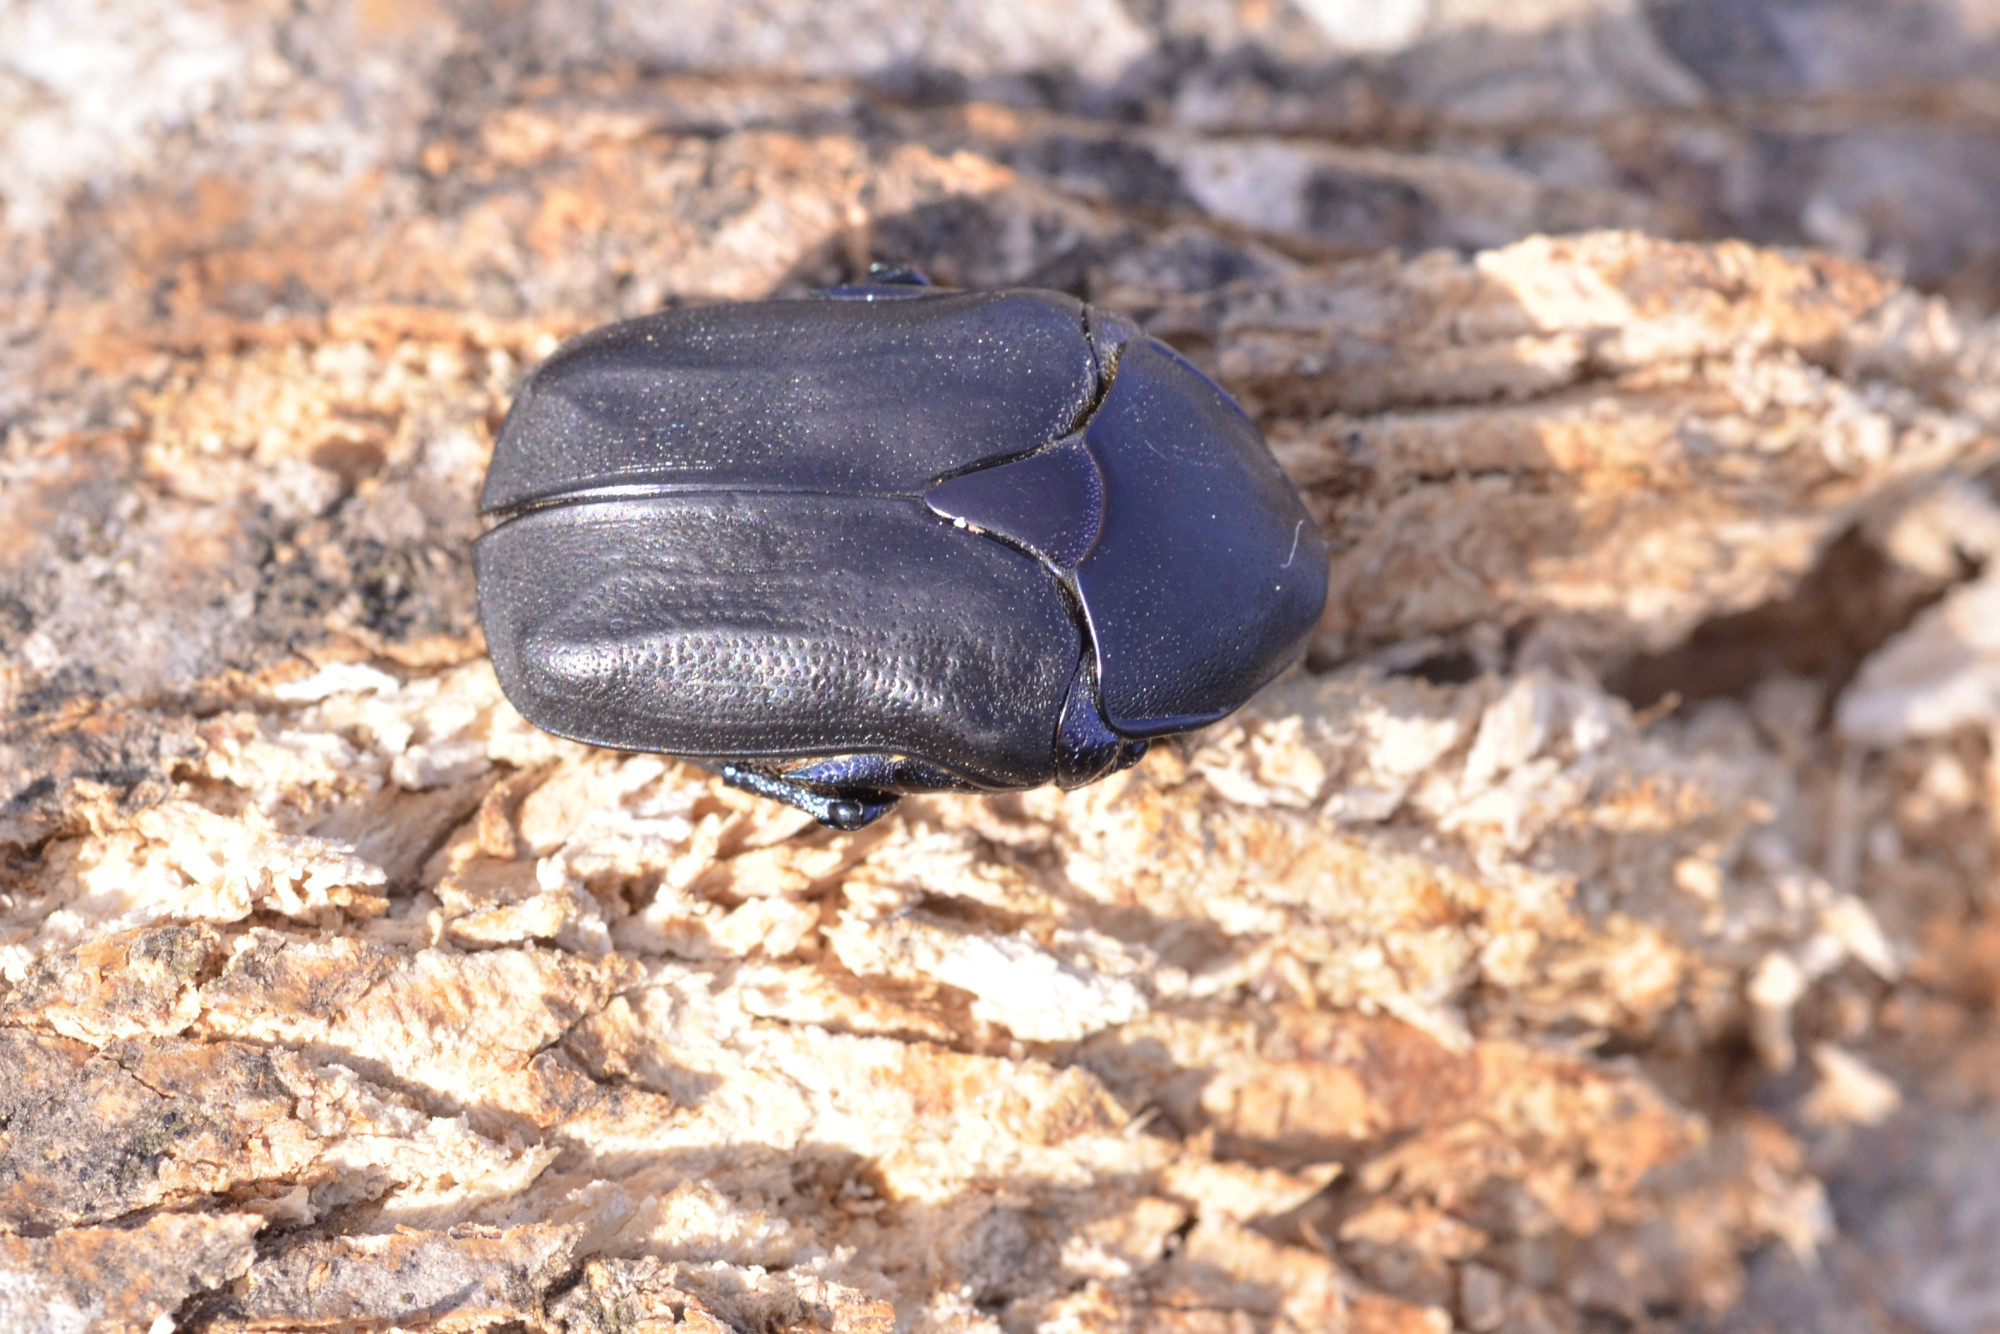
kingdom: Animalia
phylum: Arthropoda
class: Insecta
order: Coleoptera
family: Scarabaeidae
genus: Protaetia
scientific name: Protaetia cretica
